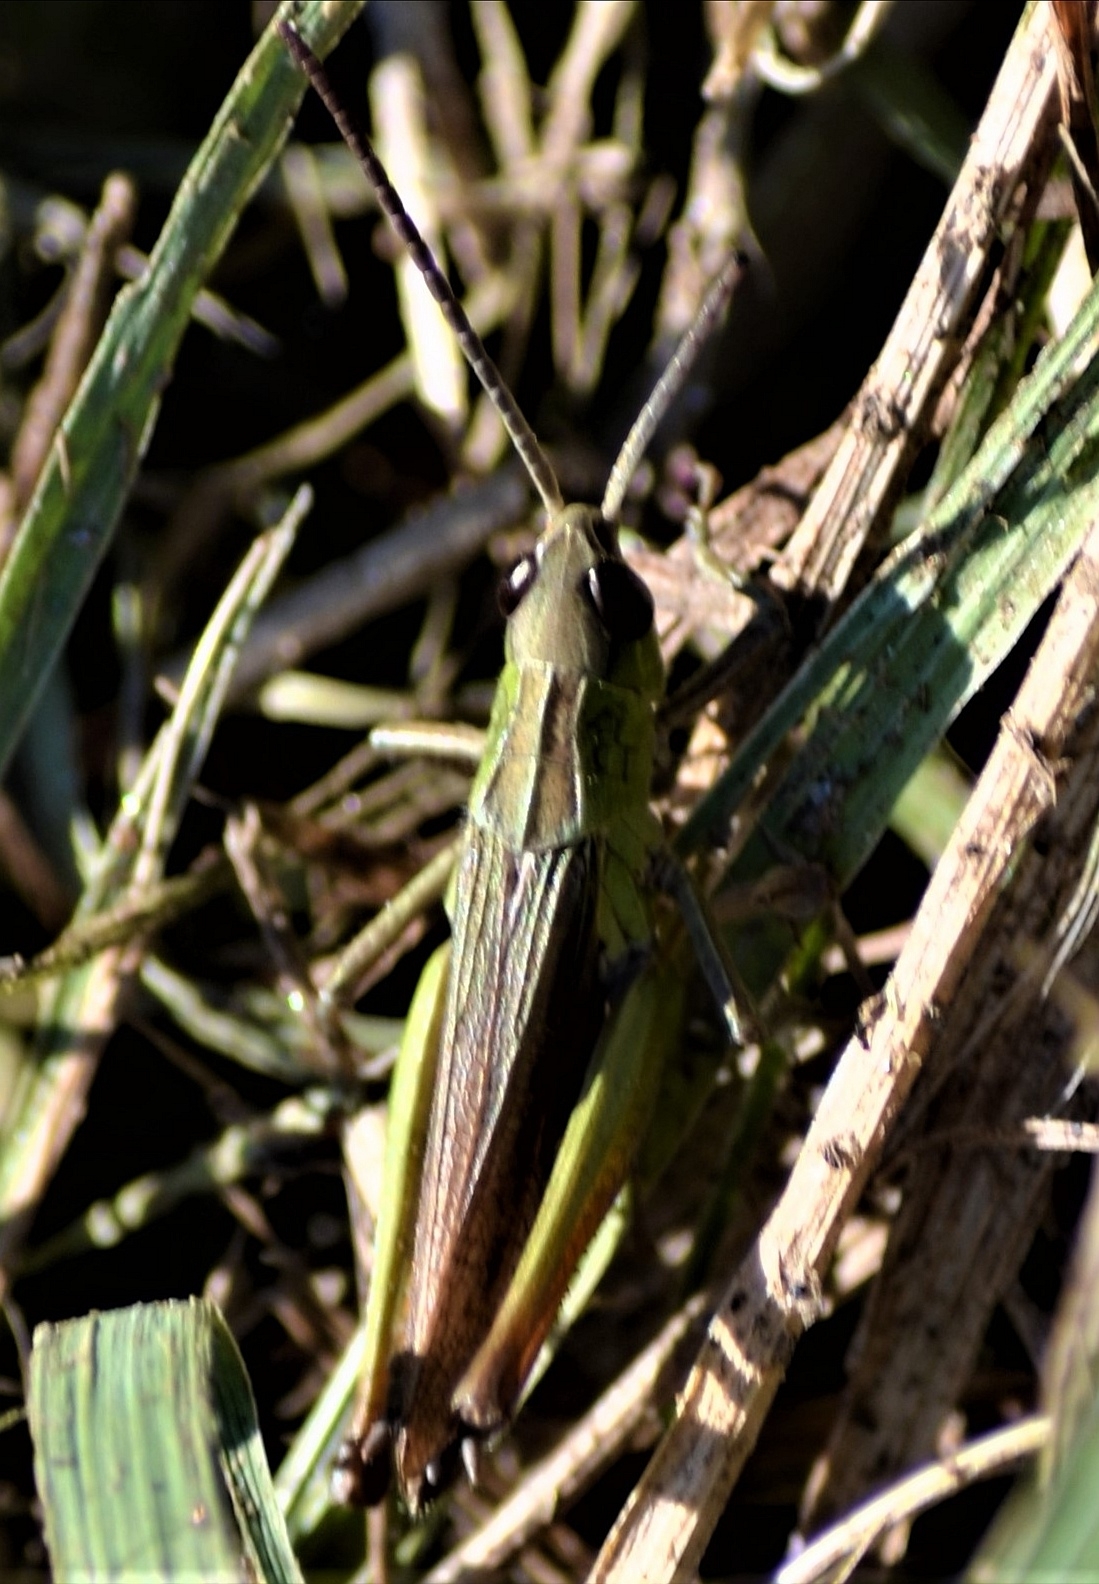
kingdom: Animalia
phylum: Arthropoda
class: Insecta
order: Orthoptera
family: Acrididae
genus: Chorthippus
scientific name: Chorthippus dorsatus
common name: Steppe grasshopper
